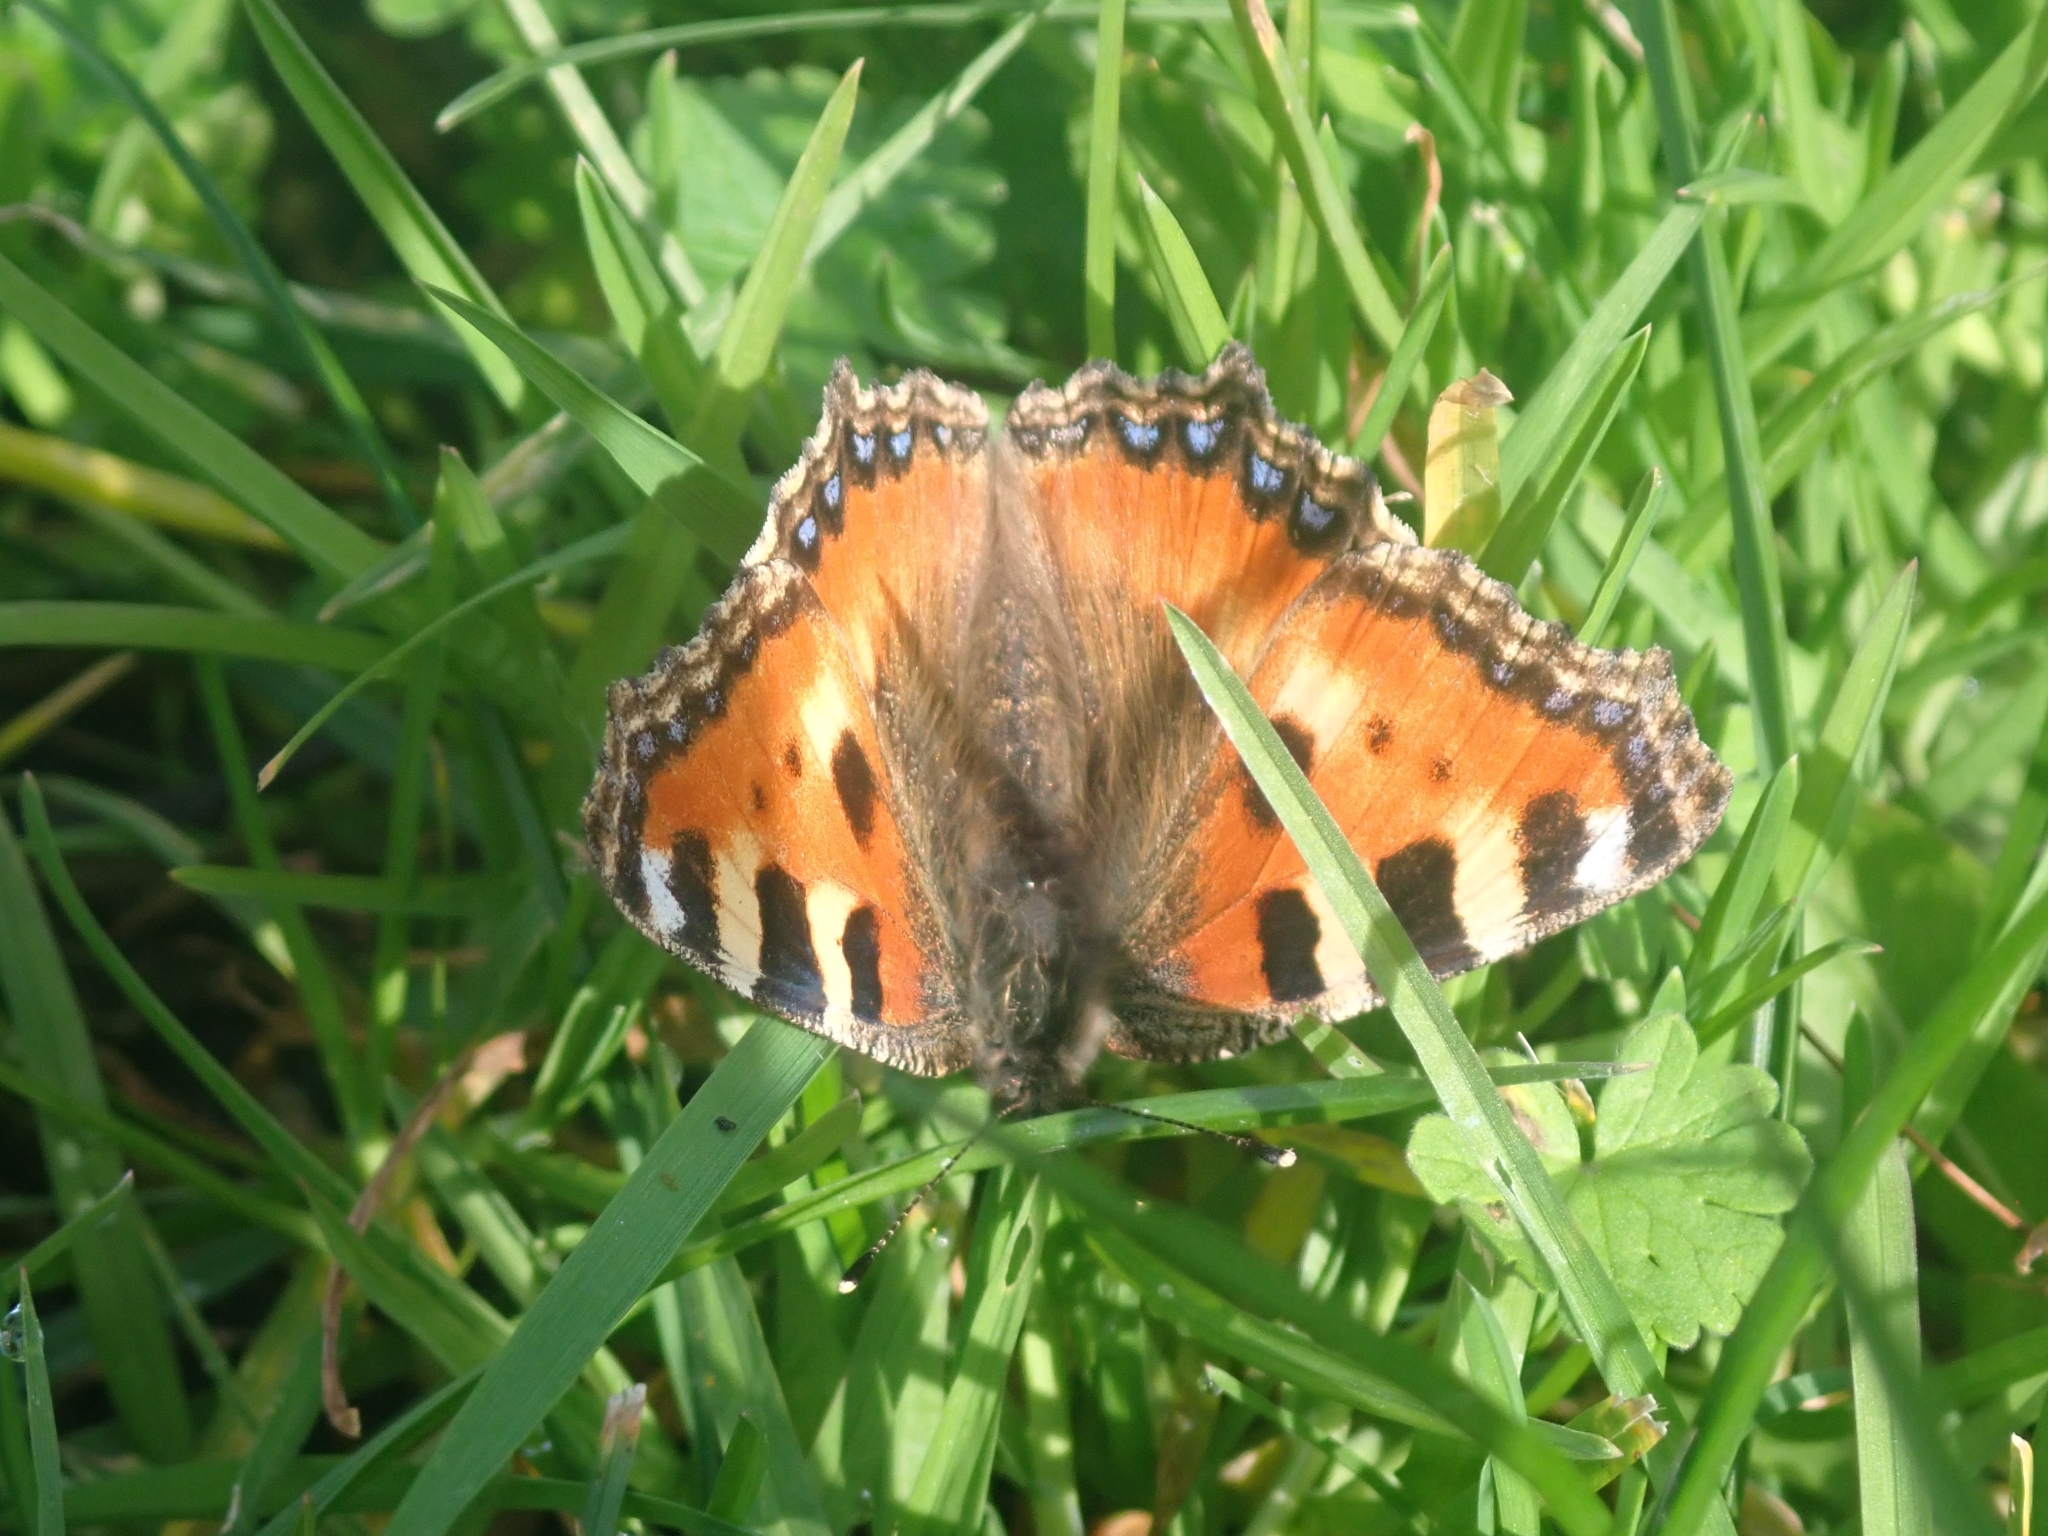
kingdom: Animalia
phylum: Arthropoda
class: Insecta
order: Lepidoptera
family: Nymphalidae
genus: Aglais
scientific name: Aglais urticae
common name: Small tortoiseshell
